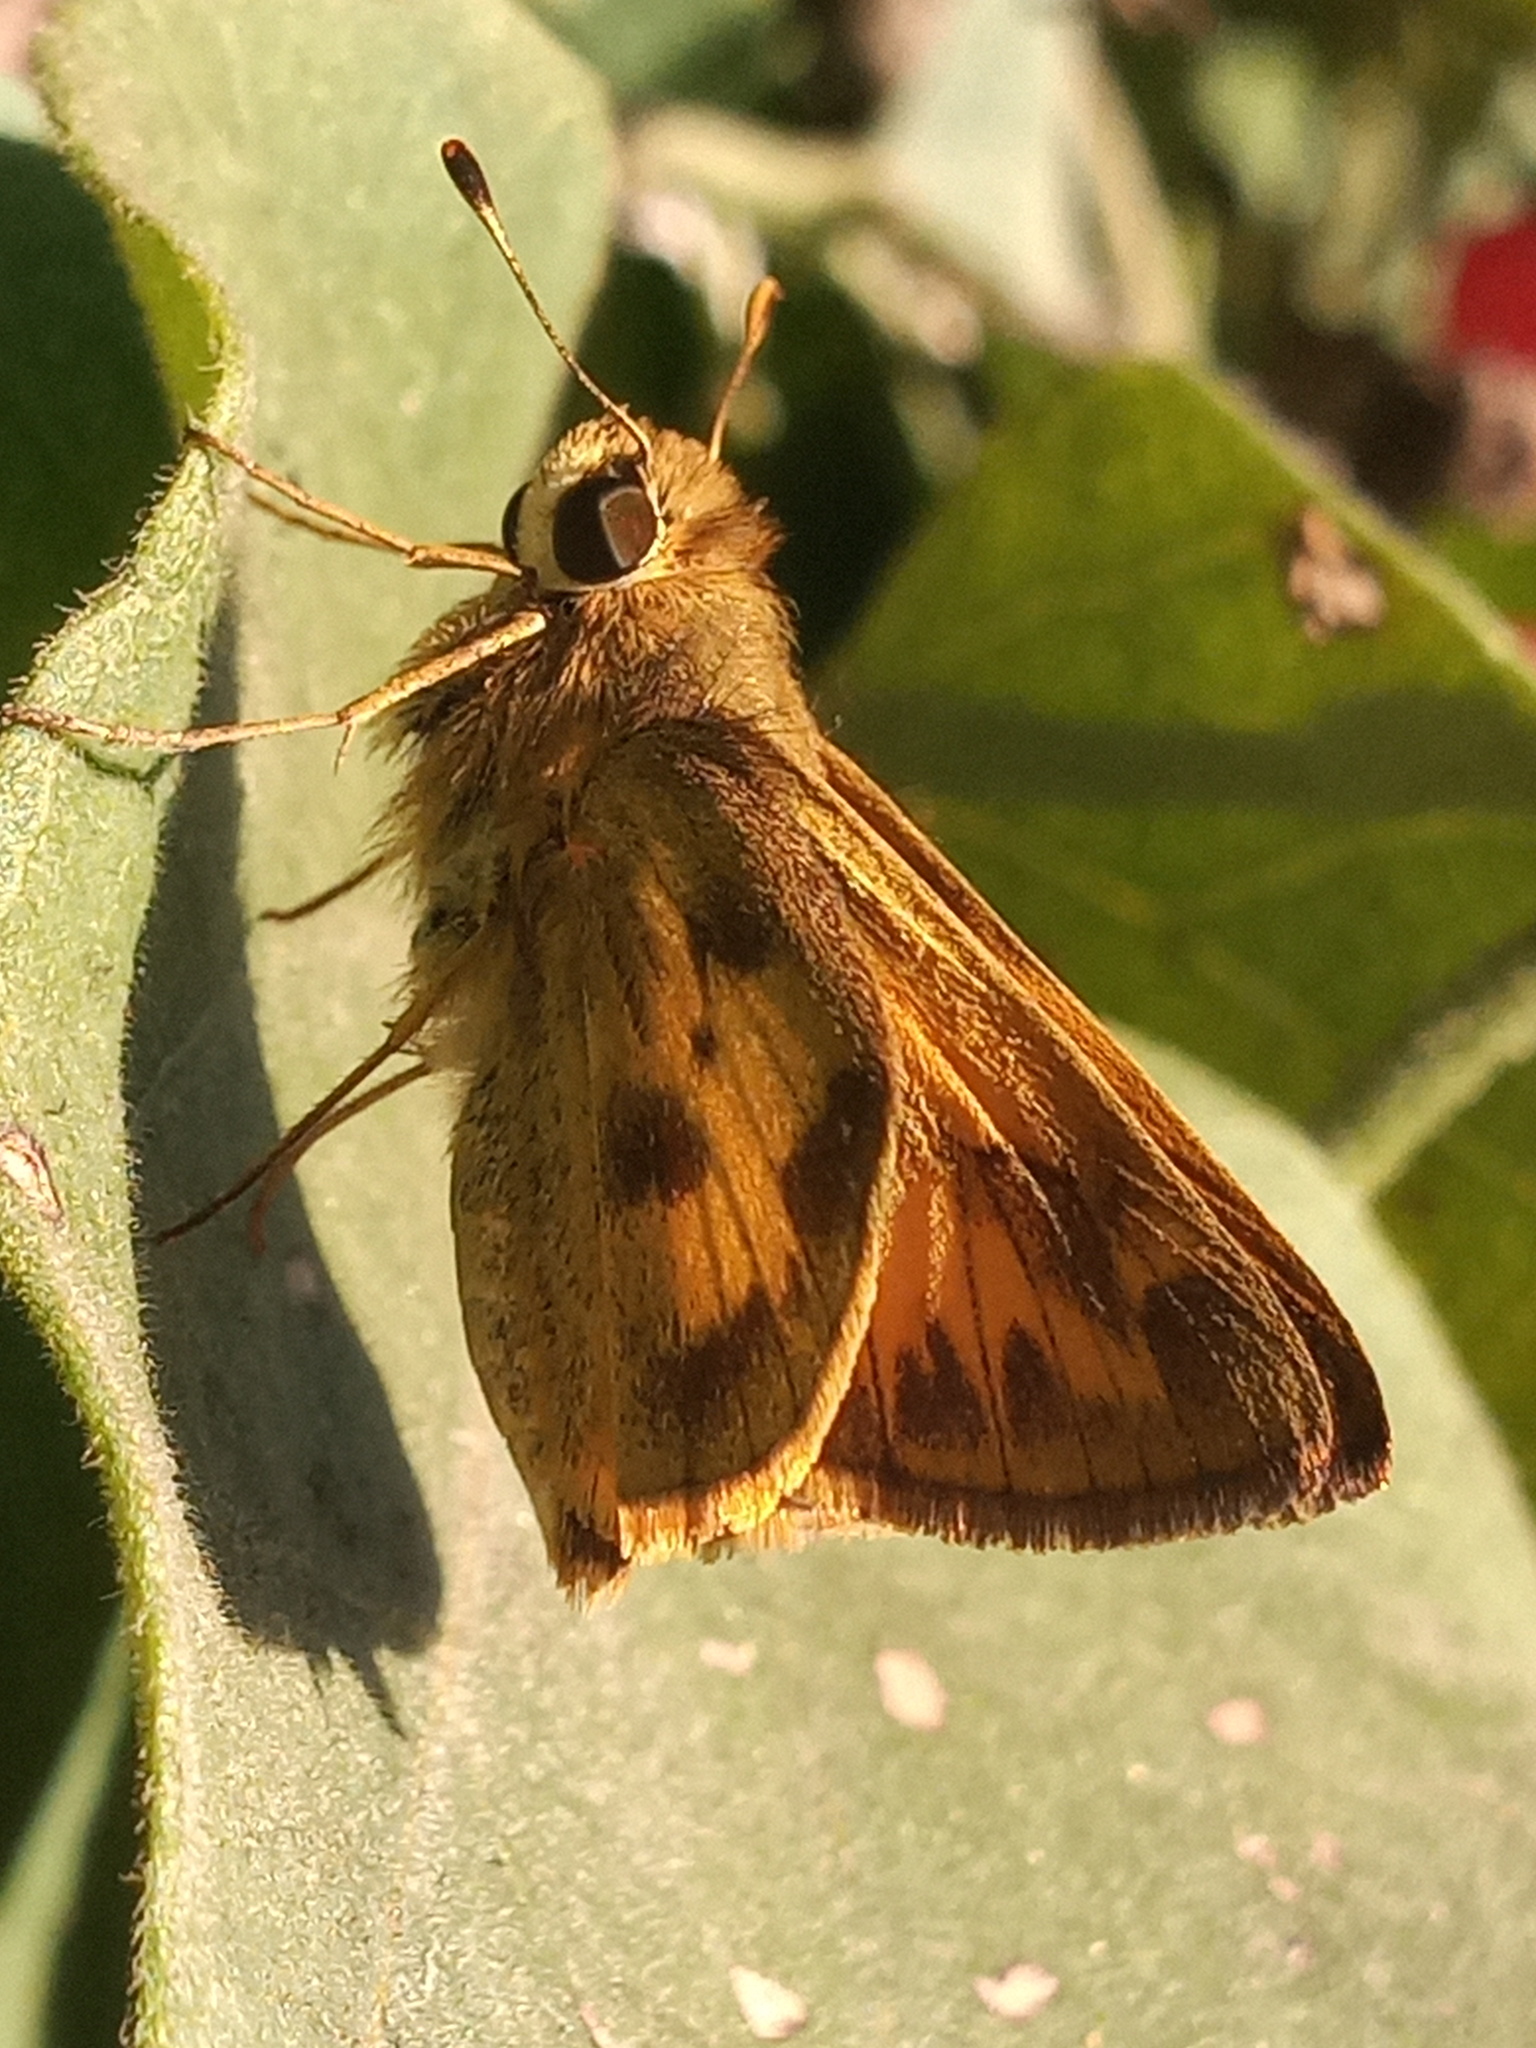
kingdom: Animalia
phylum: Arthropoda
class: Insecta
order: Lepidoptera
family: Hesperiidae
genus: Polites
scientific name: Polites vibex
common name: Whirlabout
